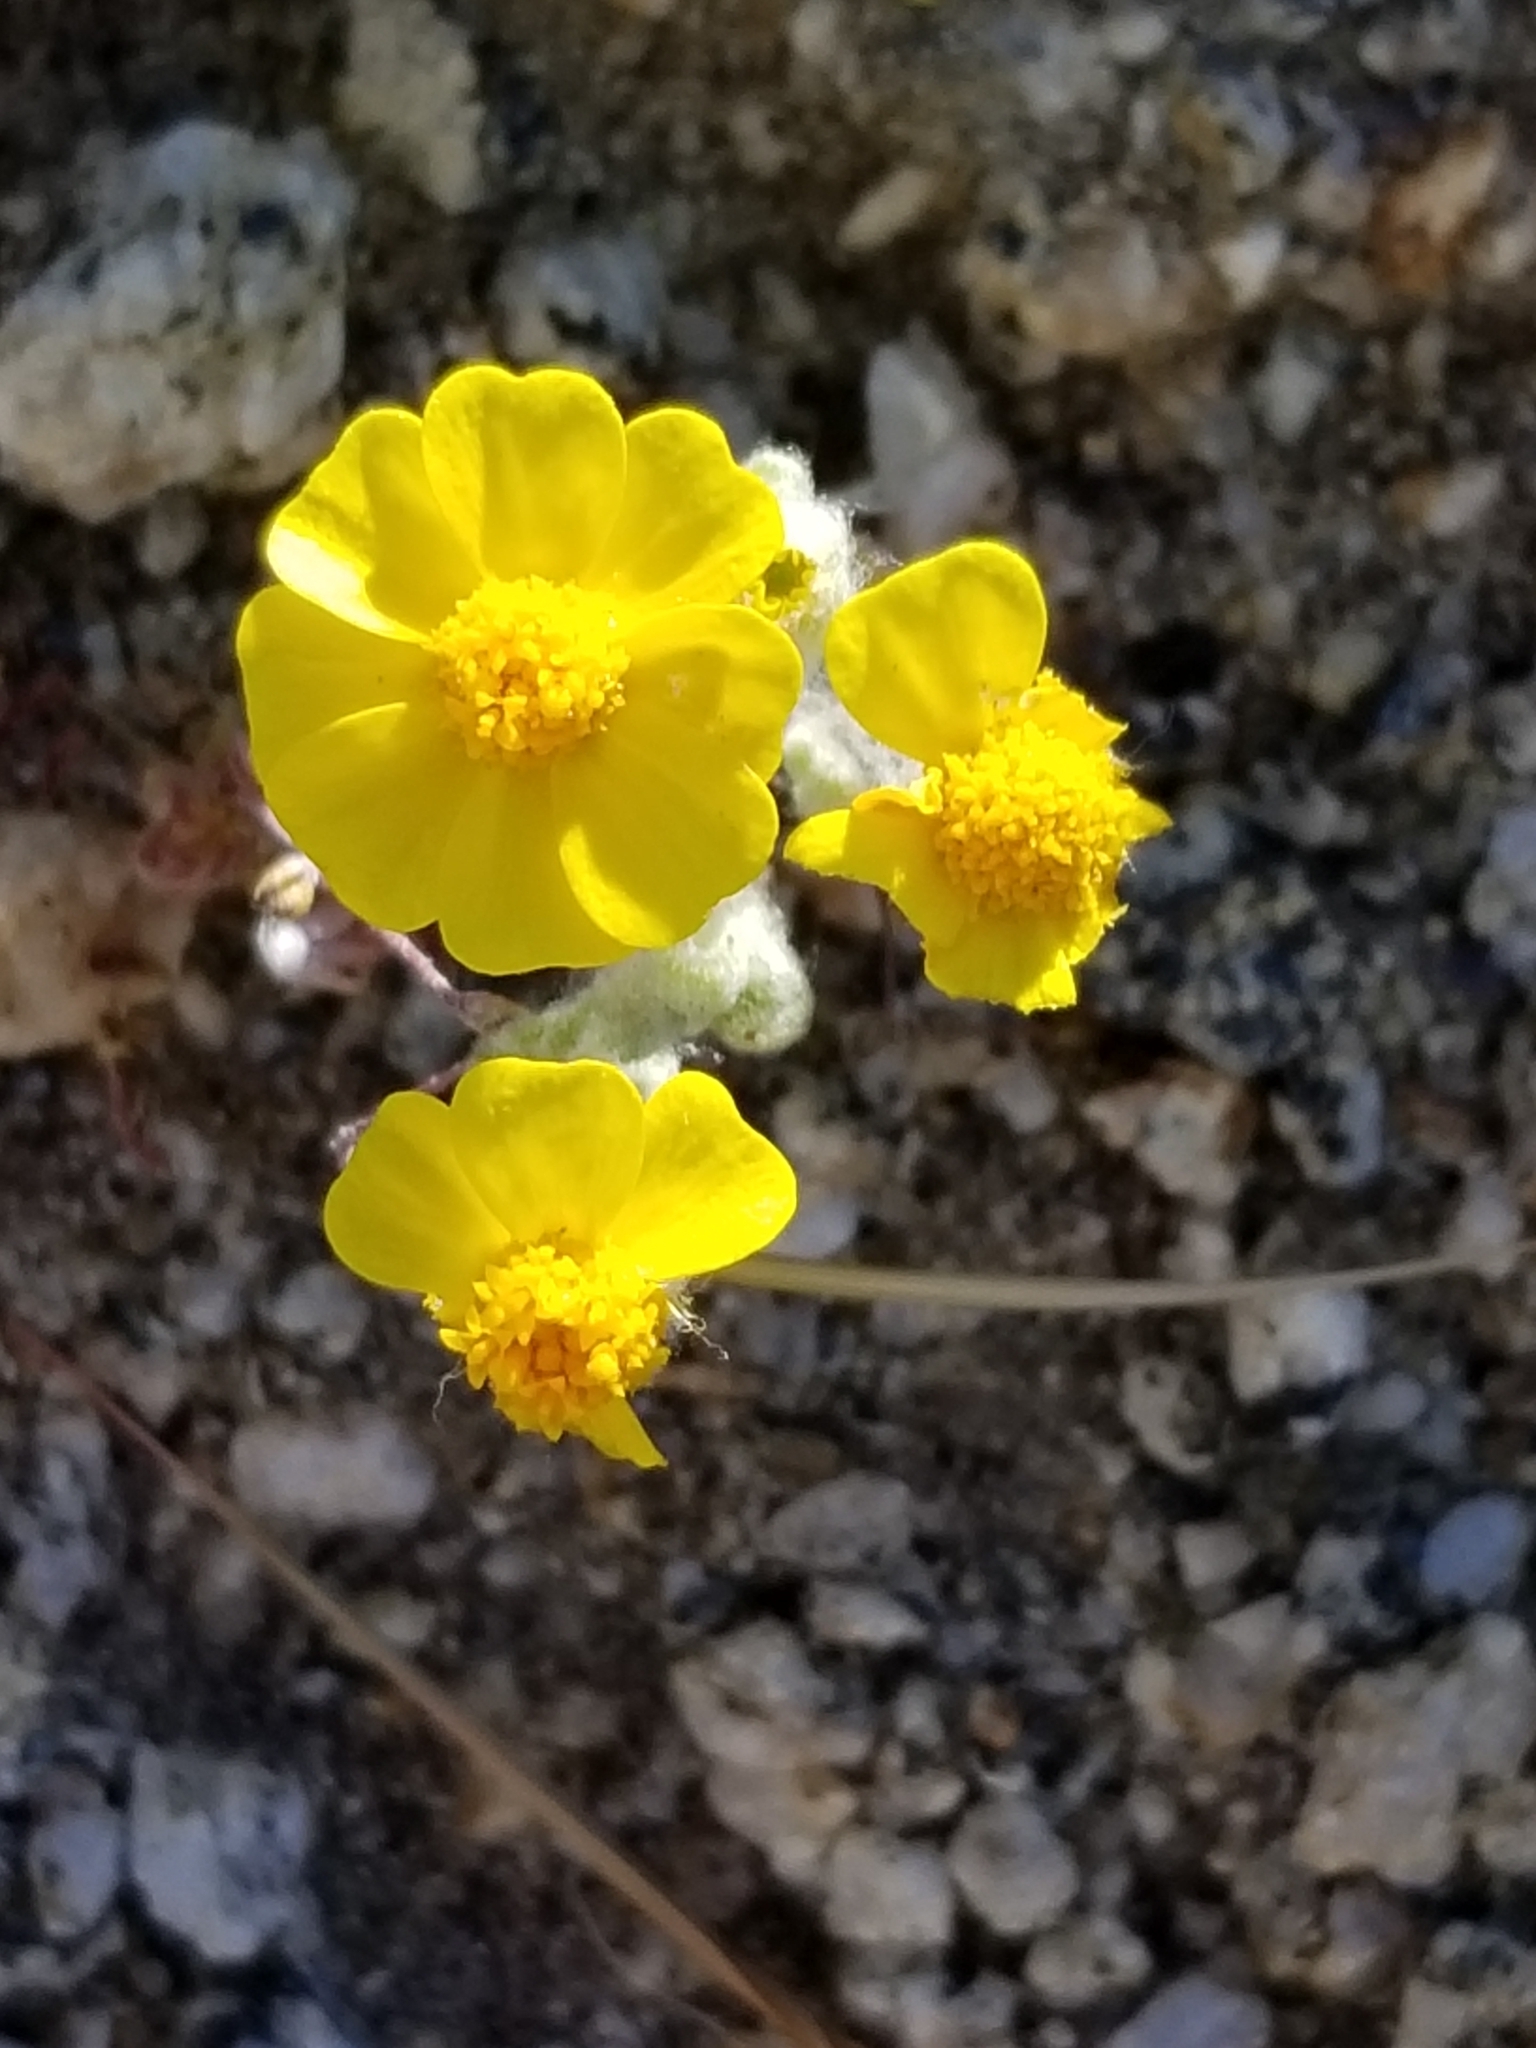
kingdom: Plantae
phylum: Tracheophyta
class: Magnoliopsida
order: Asterales
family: Asteraceae
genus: Eriophyllum
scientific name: Eriophyllum wallacei
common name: Wallace's woolly daisy
